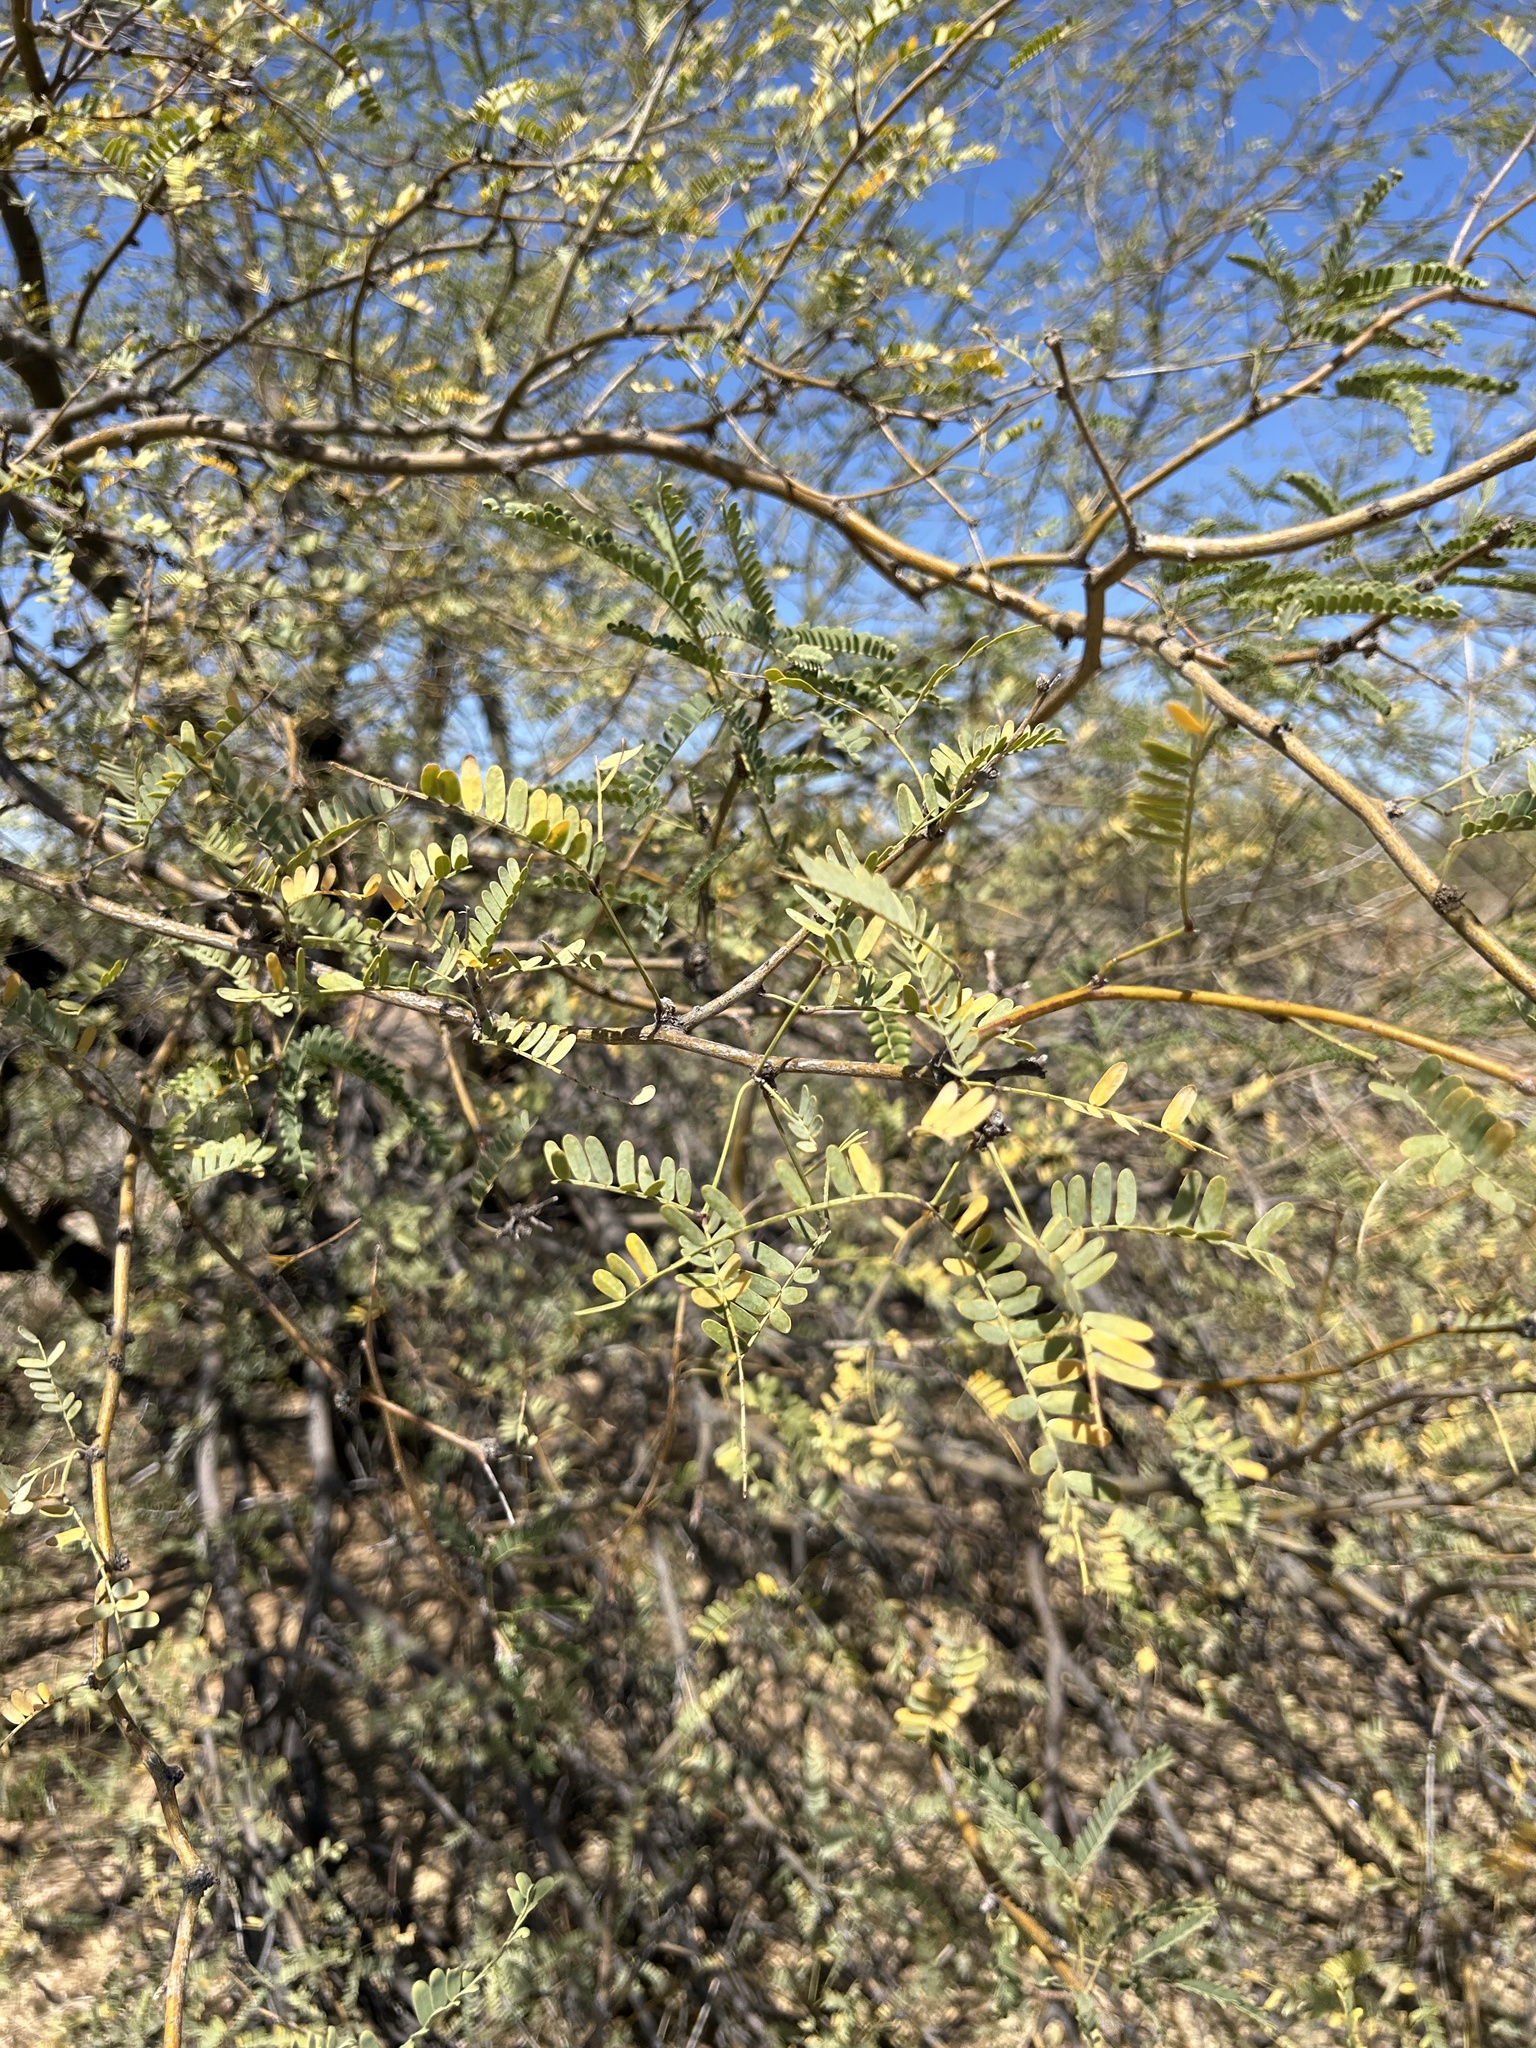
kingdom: Plantae
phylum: Tracheophyta
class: Magnoliopsida
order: Fabales
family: Fabaceae
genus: Prosopis
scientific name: Prosopis velutina
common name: Velvet mesquite
